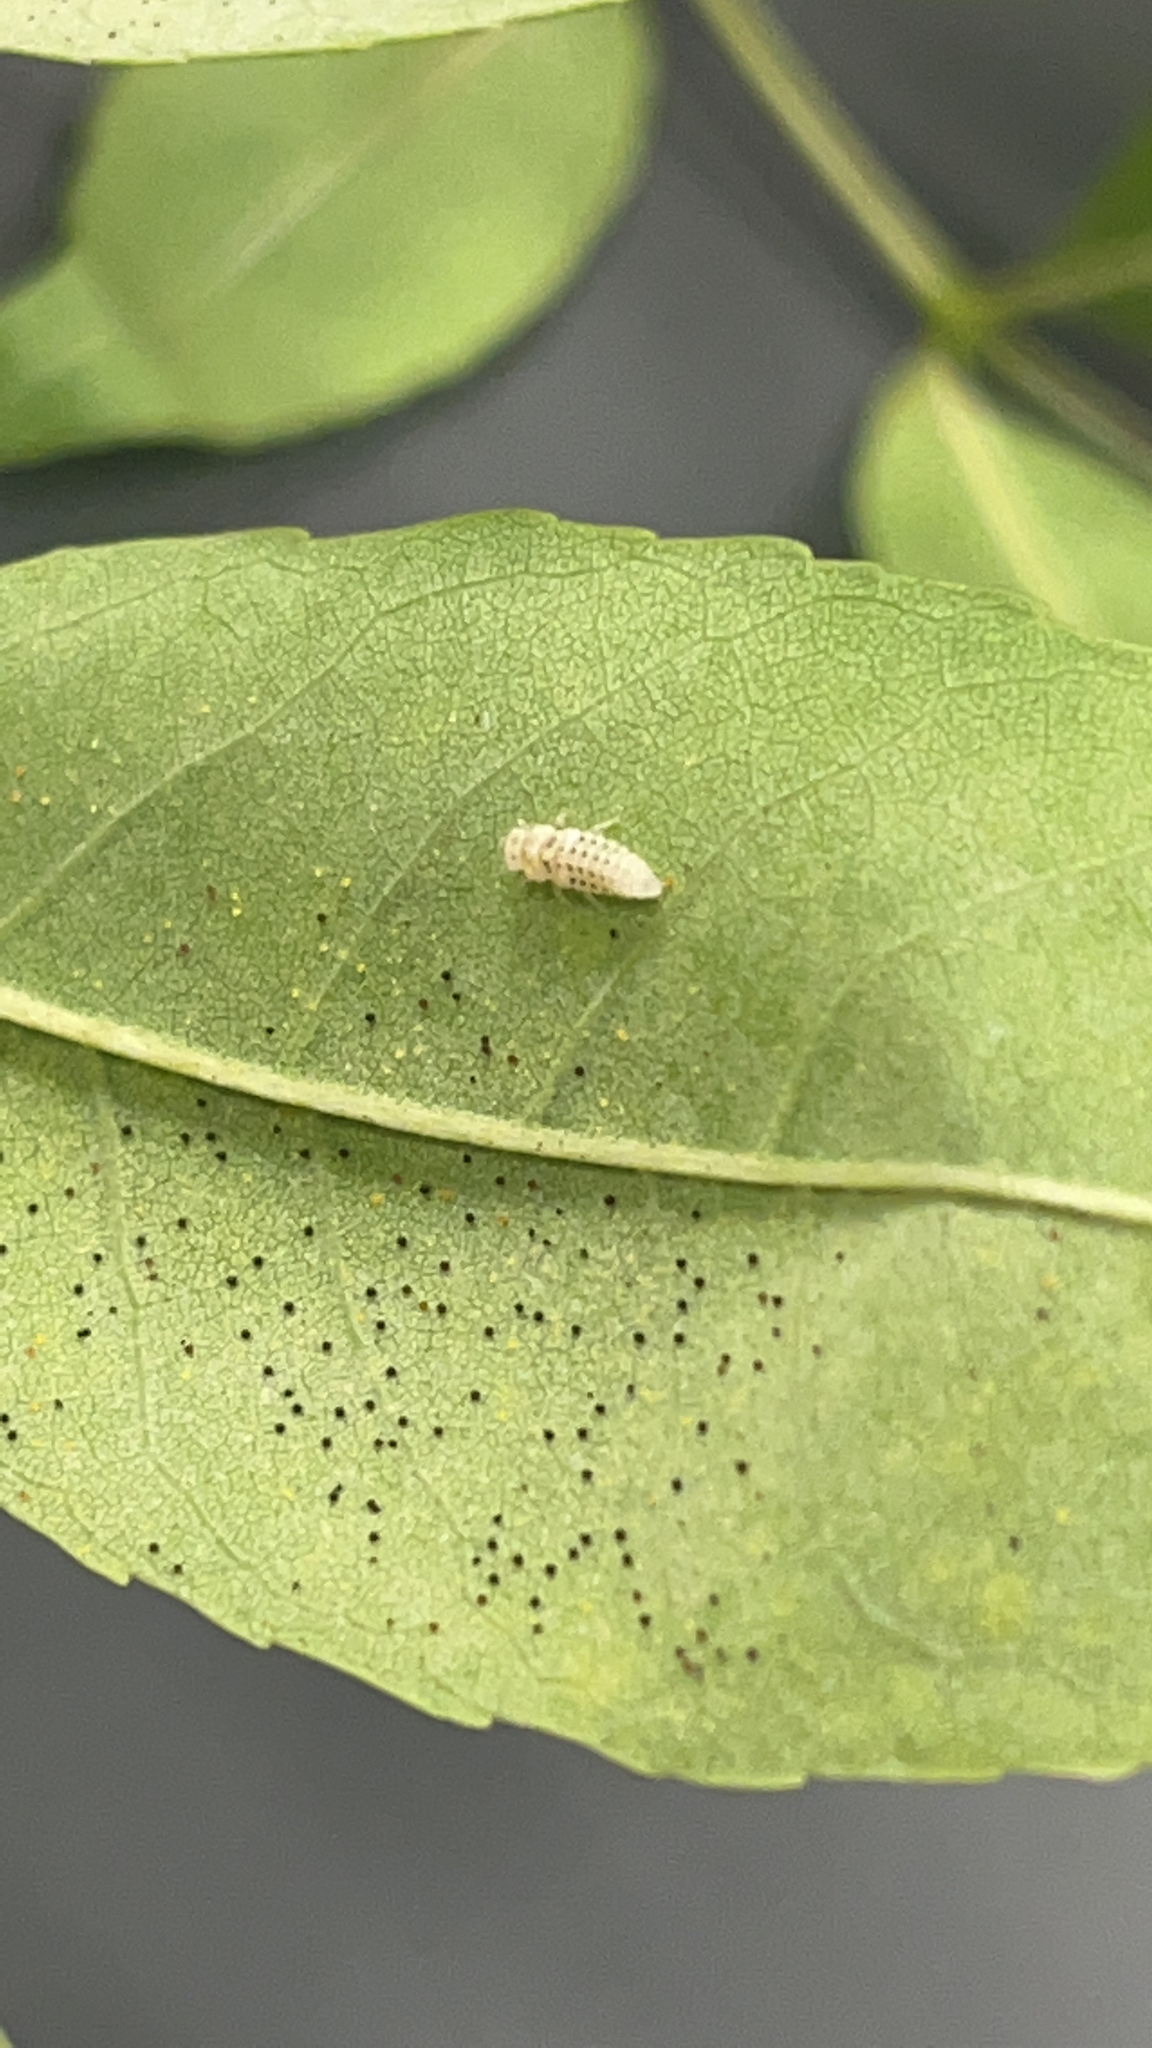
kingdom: Animalia
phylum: Arthropoda
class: Insecta
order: Coleoptera
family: Coccinellidae
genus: Psyllobora
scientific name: Psyllobora vigintimaculata
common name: Ladybird beetle
